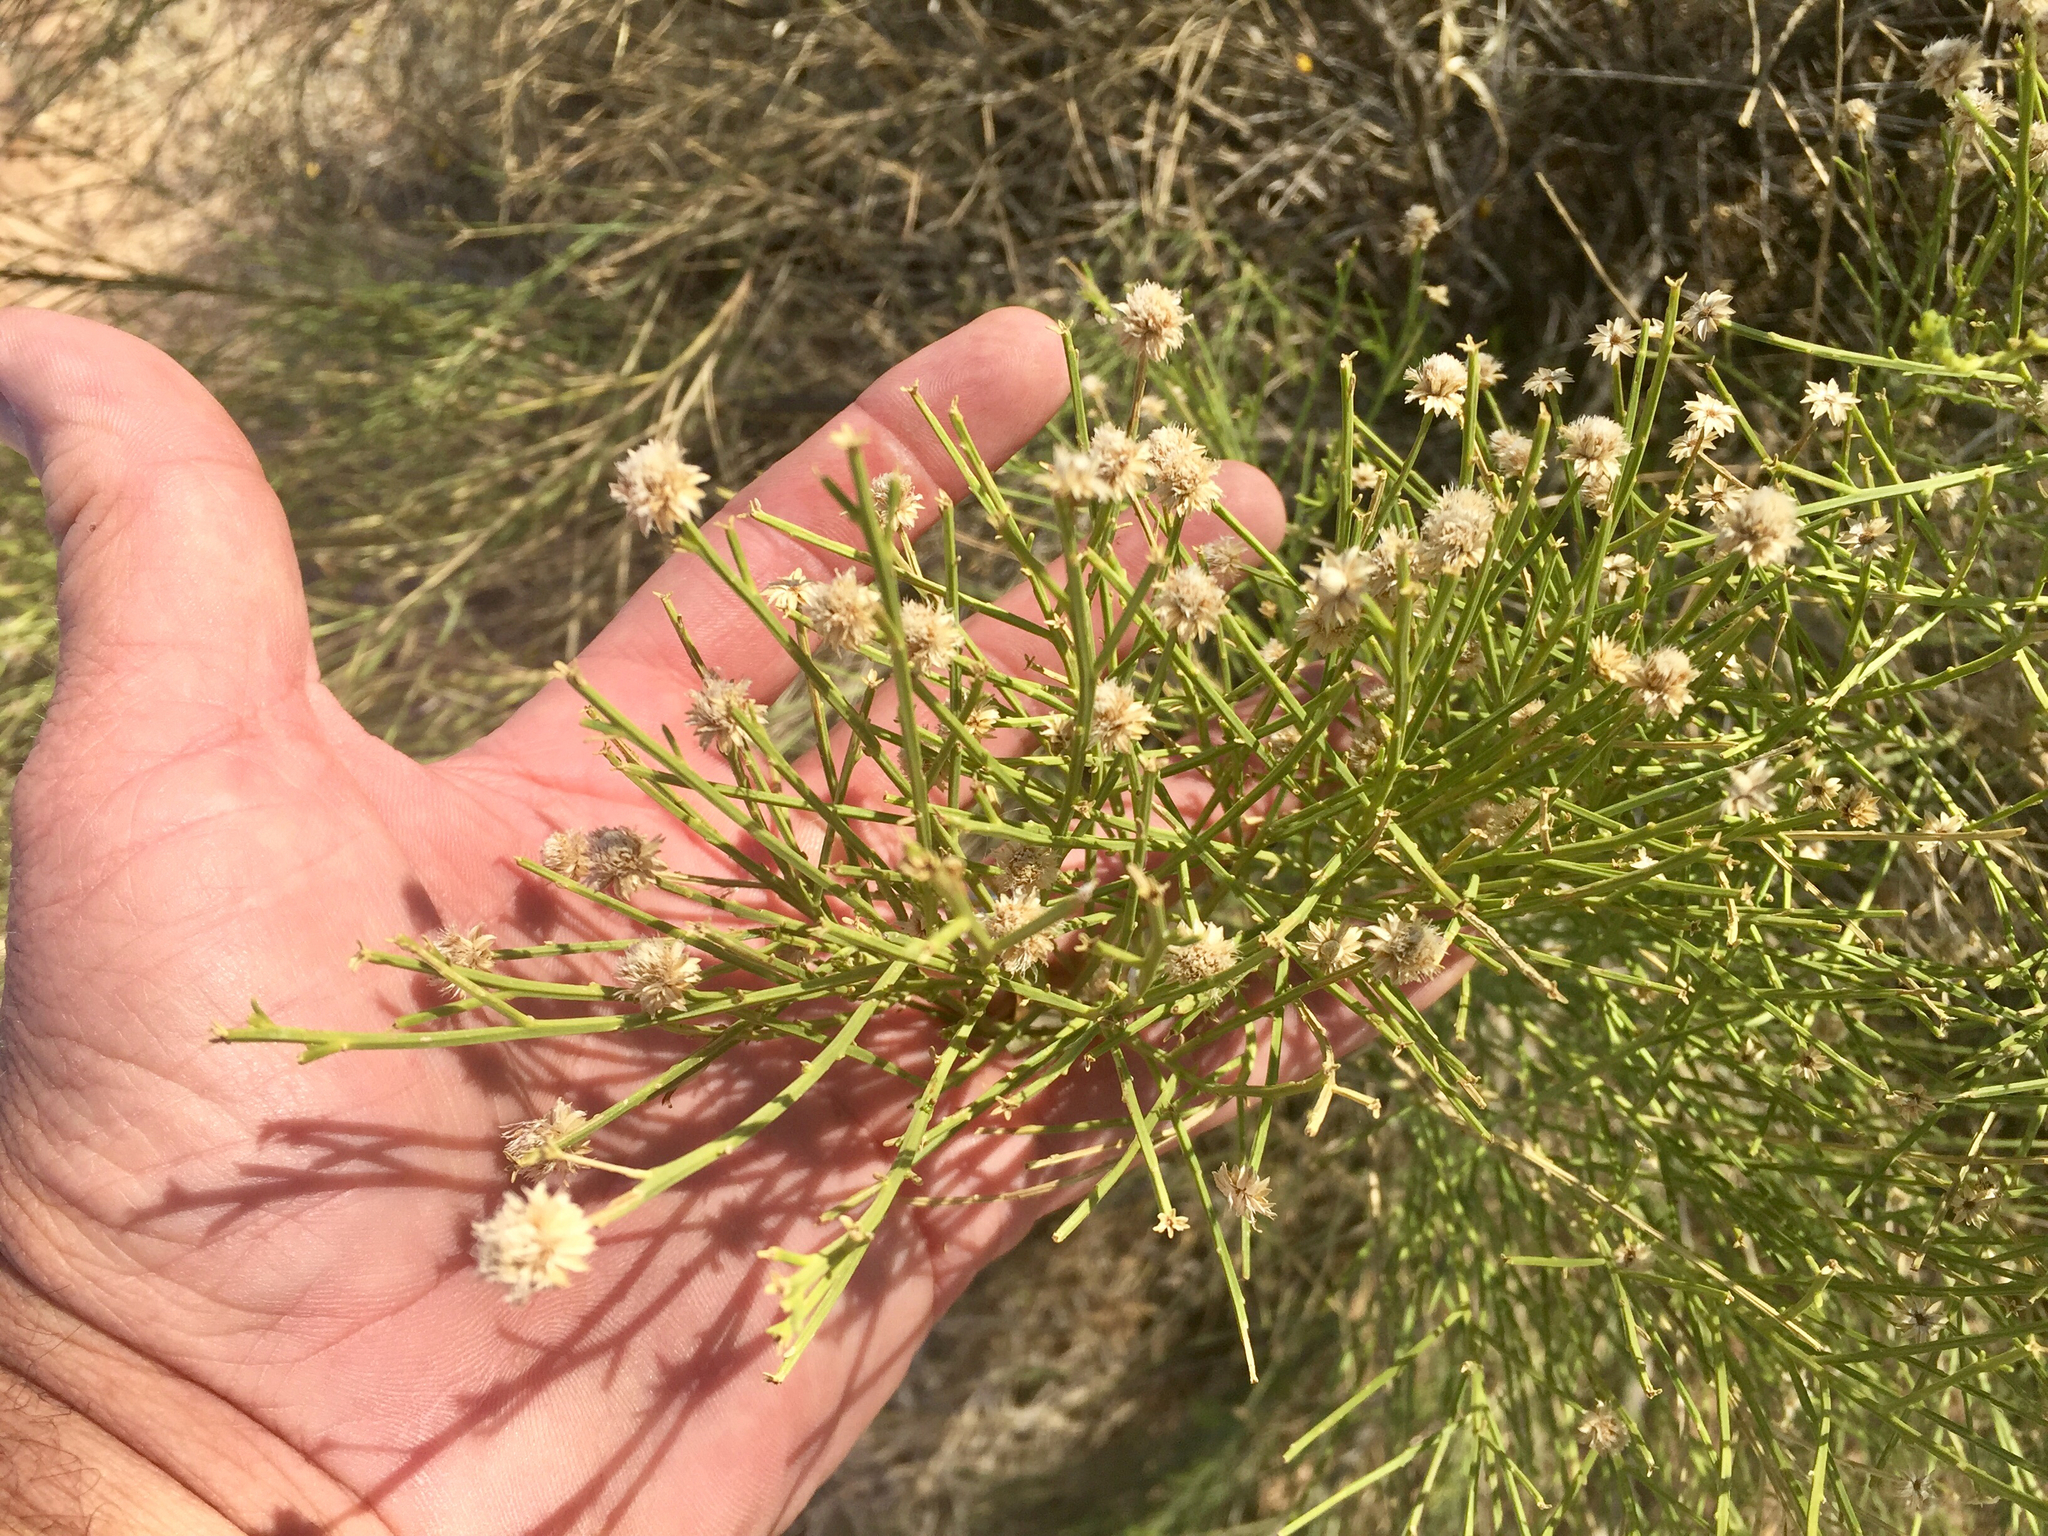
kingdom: Plantae
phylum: Tracheophyta
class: Magnoliopsida
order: Asterales
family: Asteraceae
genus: Baccharis
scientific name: Baccharis sarothroides
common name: Desert-broom
